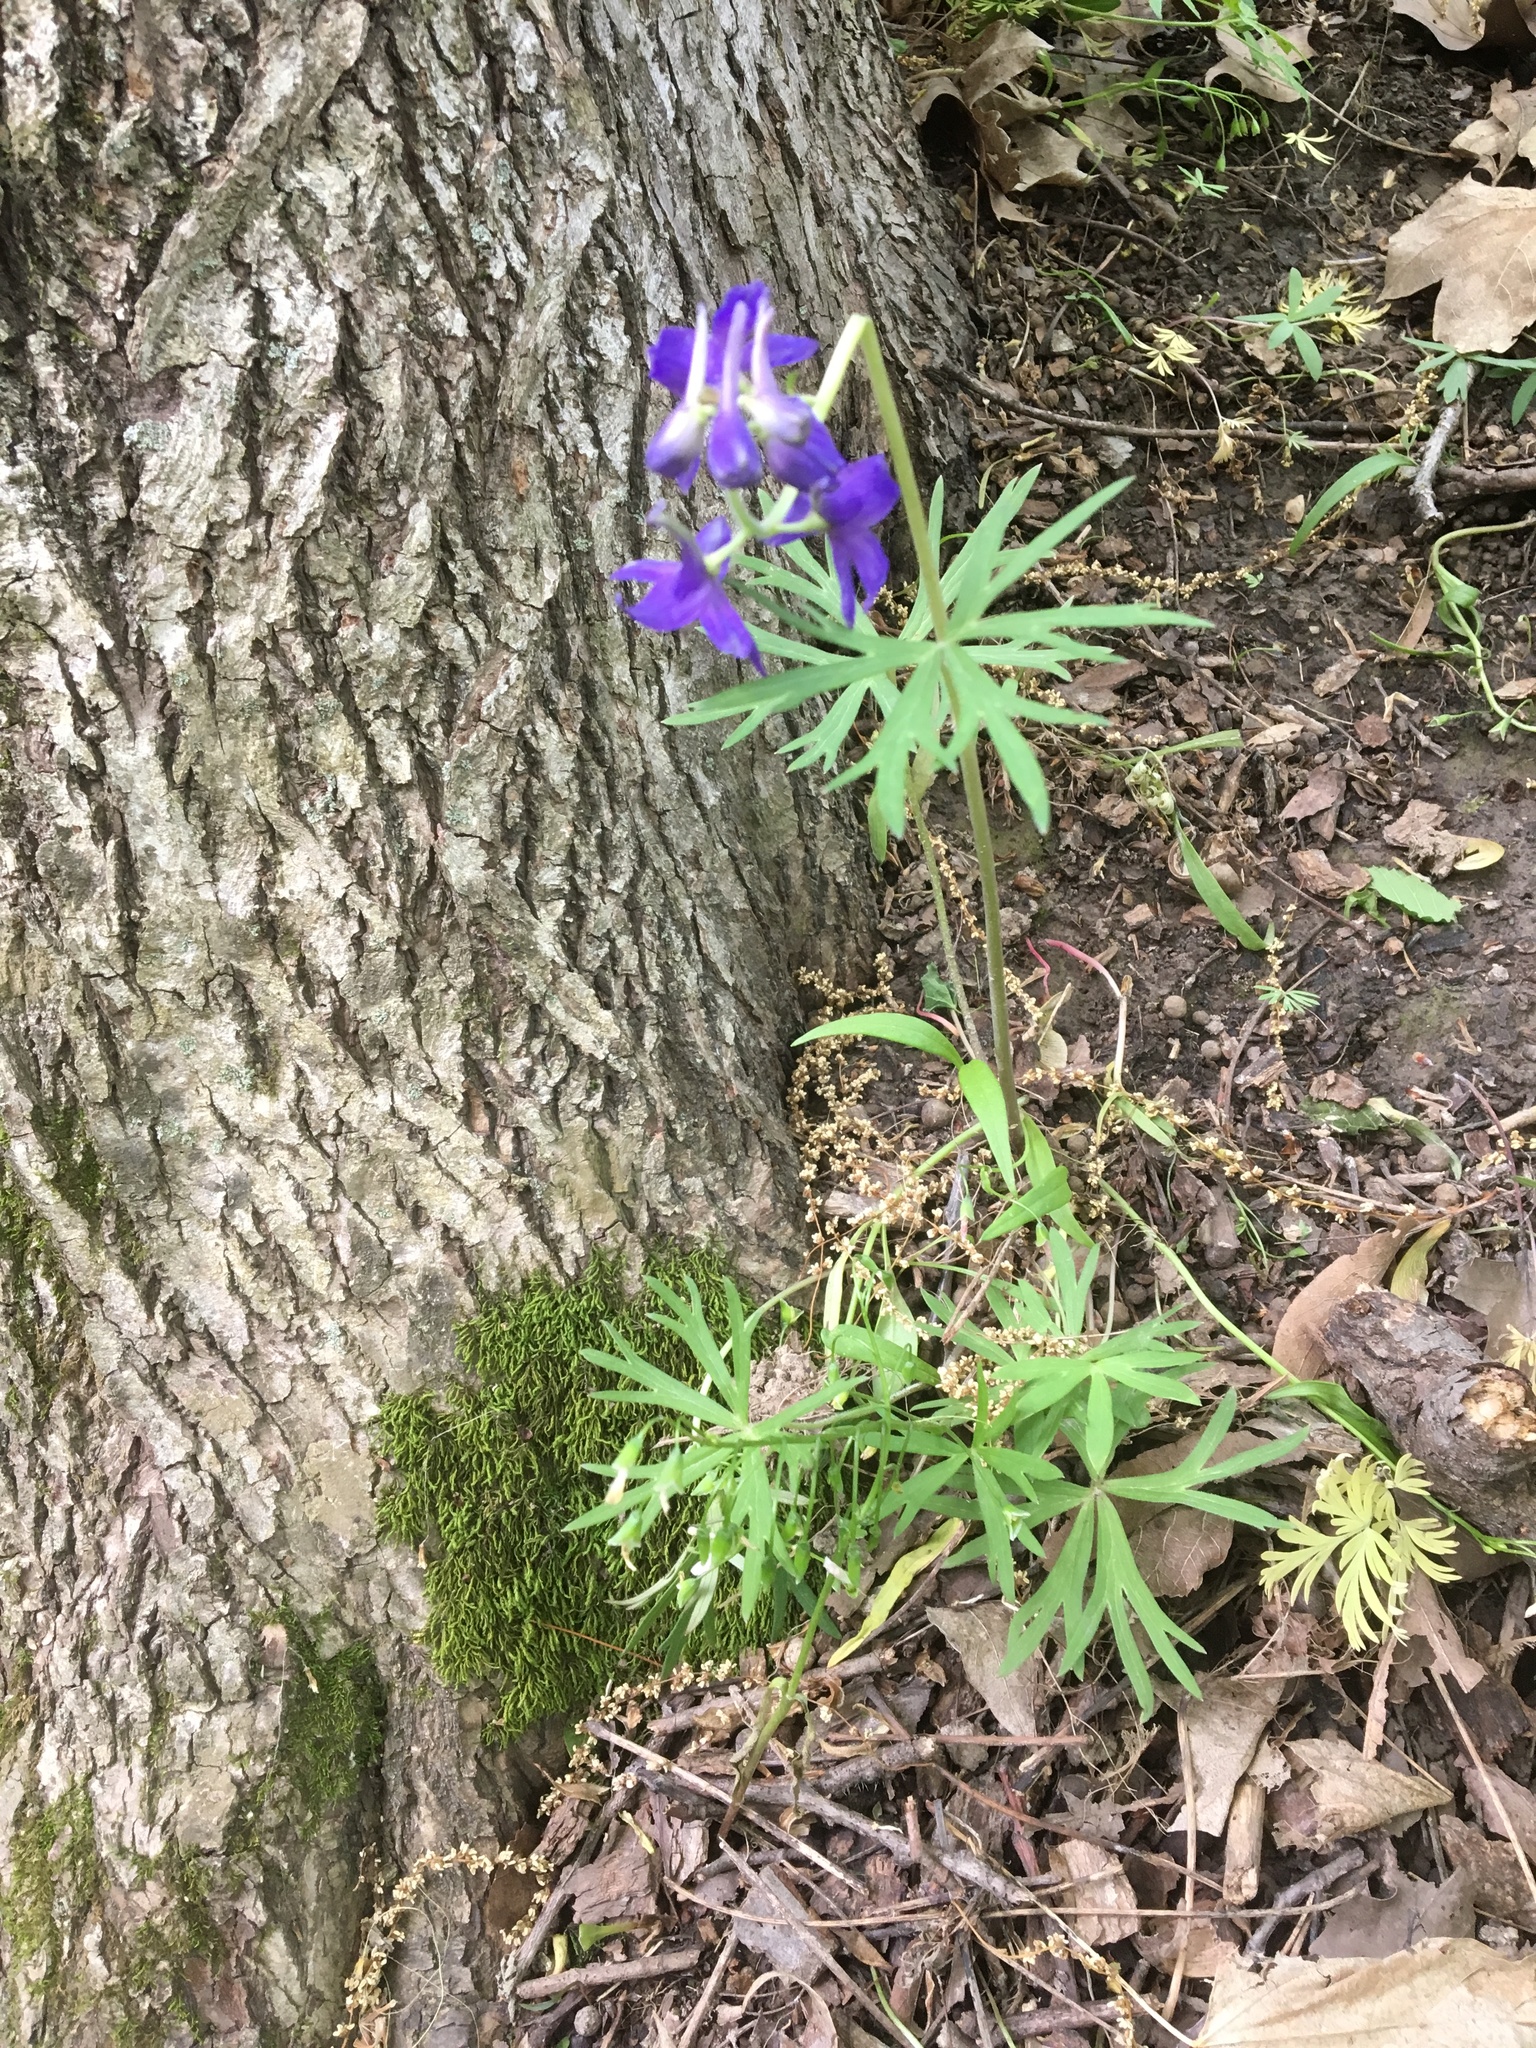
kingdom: Plantae
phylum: Tracheophyta
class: Magnoliopsida
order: Ranunculales
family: Ranunculaceae
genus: Delphinium
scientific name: Delphinium tricorne
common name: Dwarf larkspur
